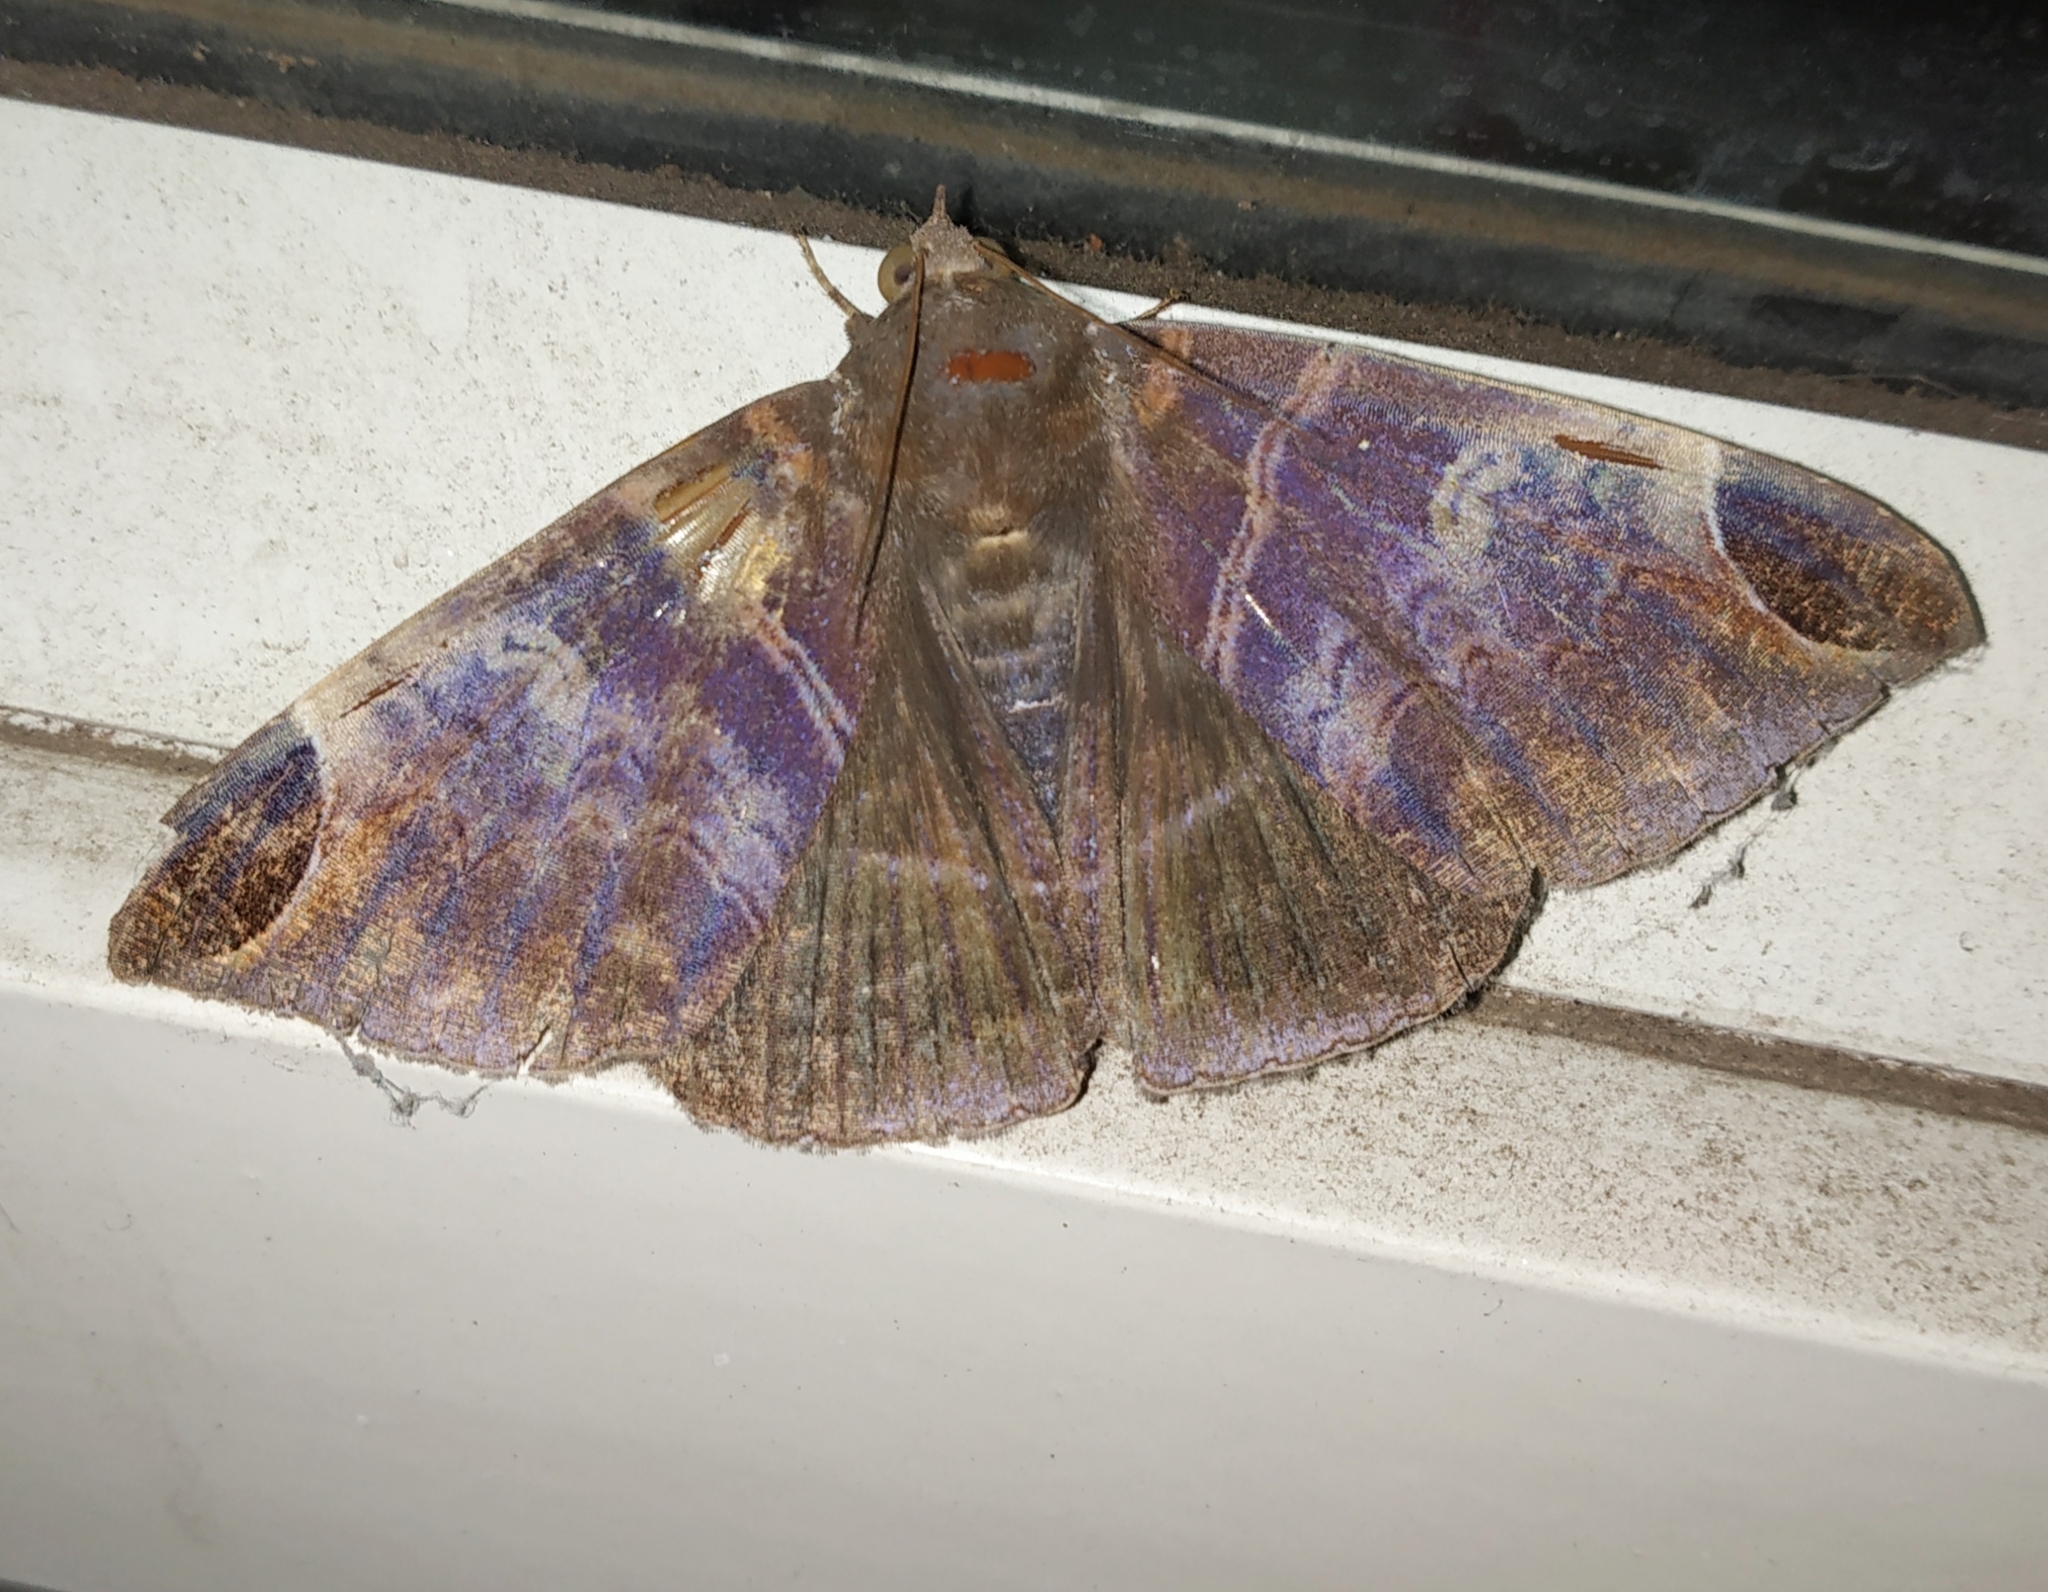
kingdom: Animalia
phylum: Arthropoda
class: Insecta
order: Lepidoptera
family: Erebidae
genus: Pindara
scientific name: Pindara illibata
